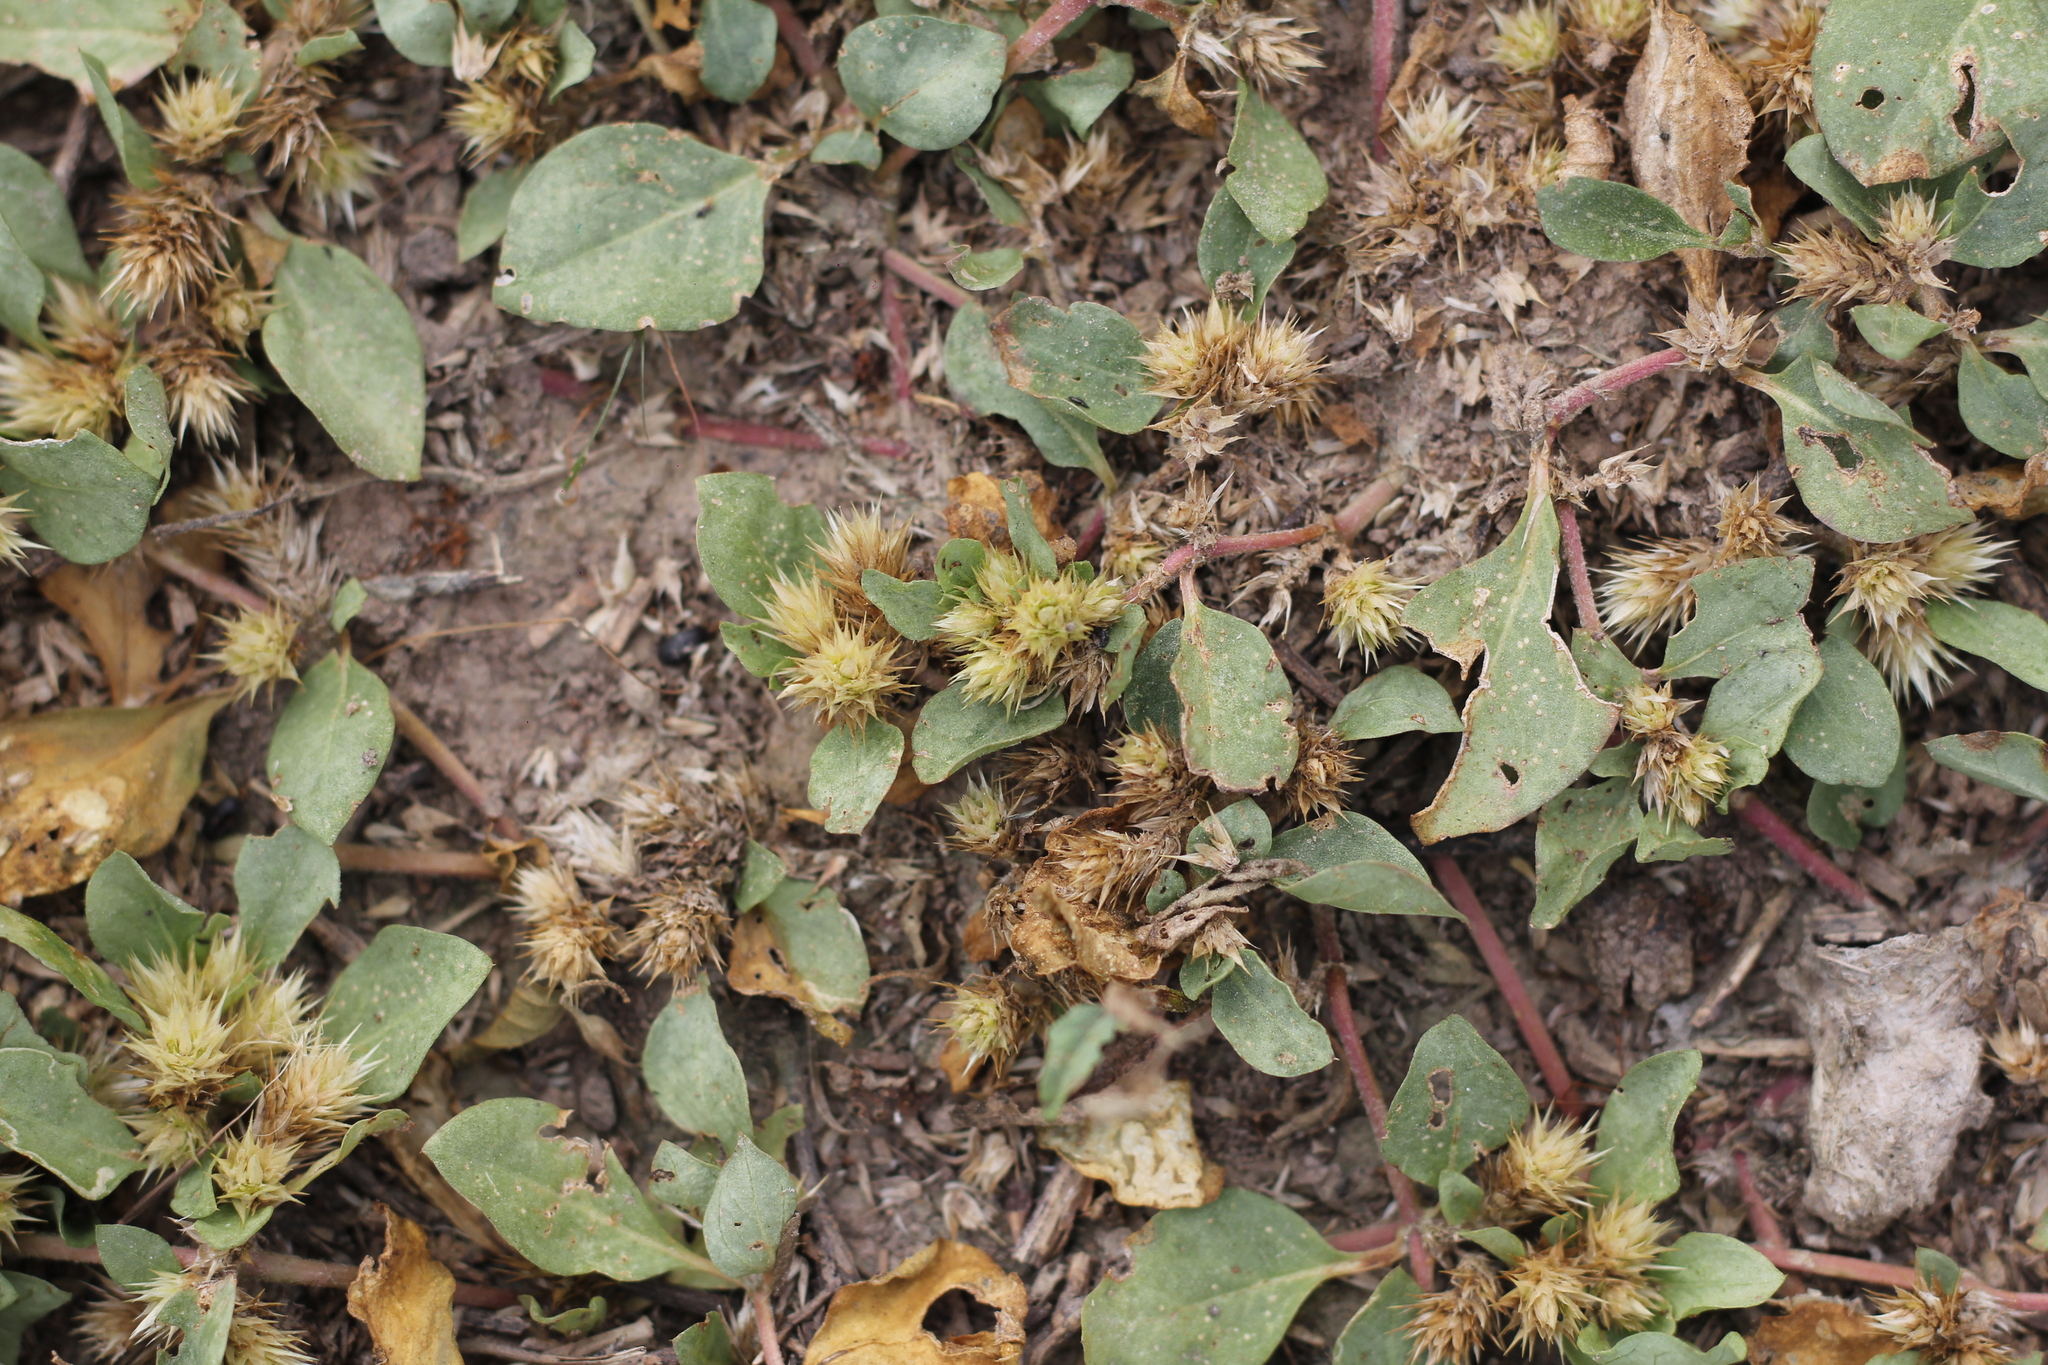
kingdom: Plantae
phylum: Tracheophyta
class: Magnoliopsida
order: Caryophyllales
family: Amaranthaceae
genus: Alternanthera
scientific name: Alternanthera pungens
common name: Khakiweed
